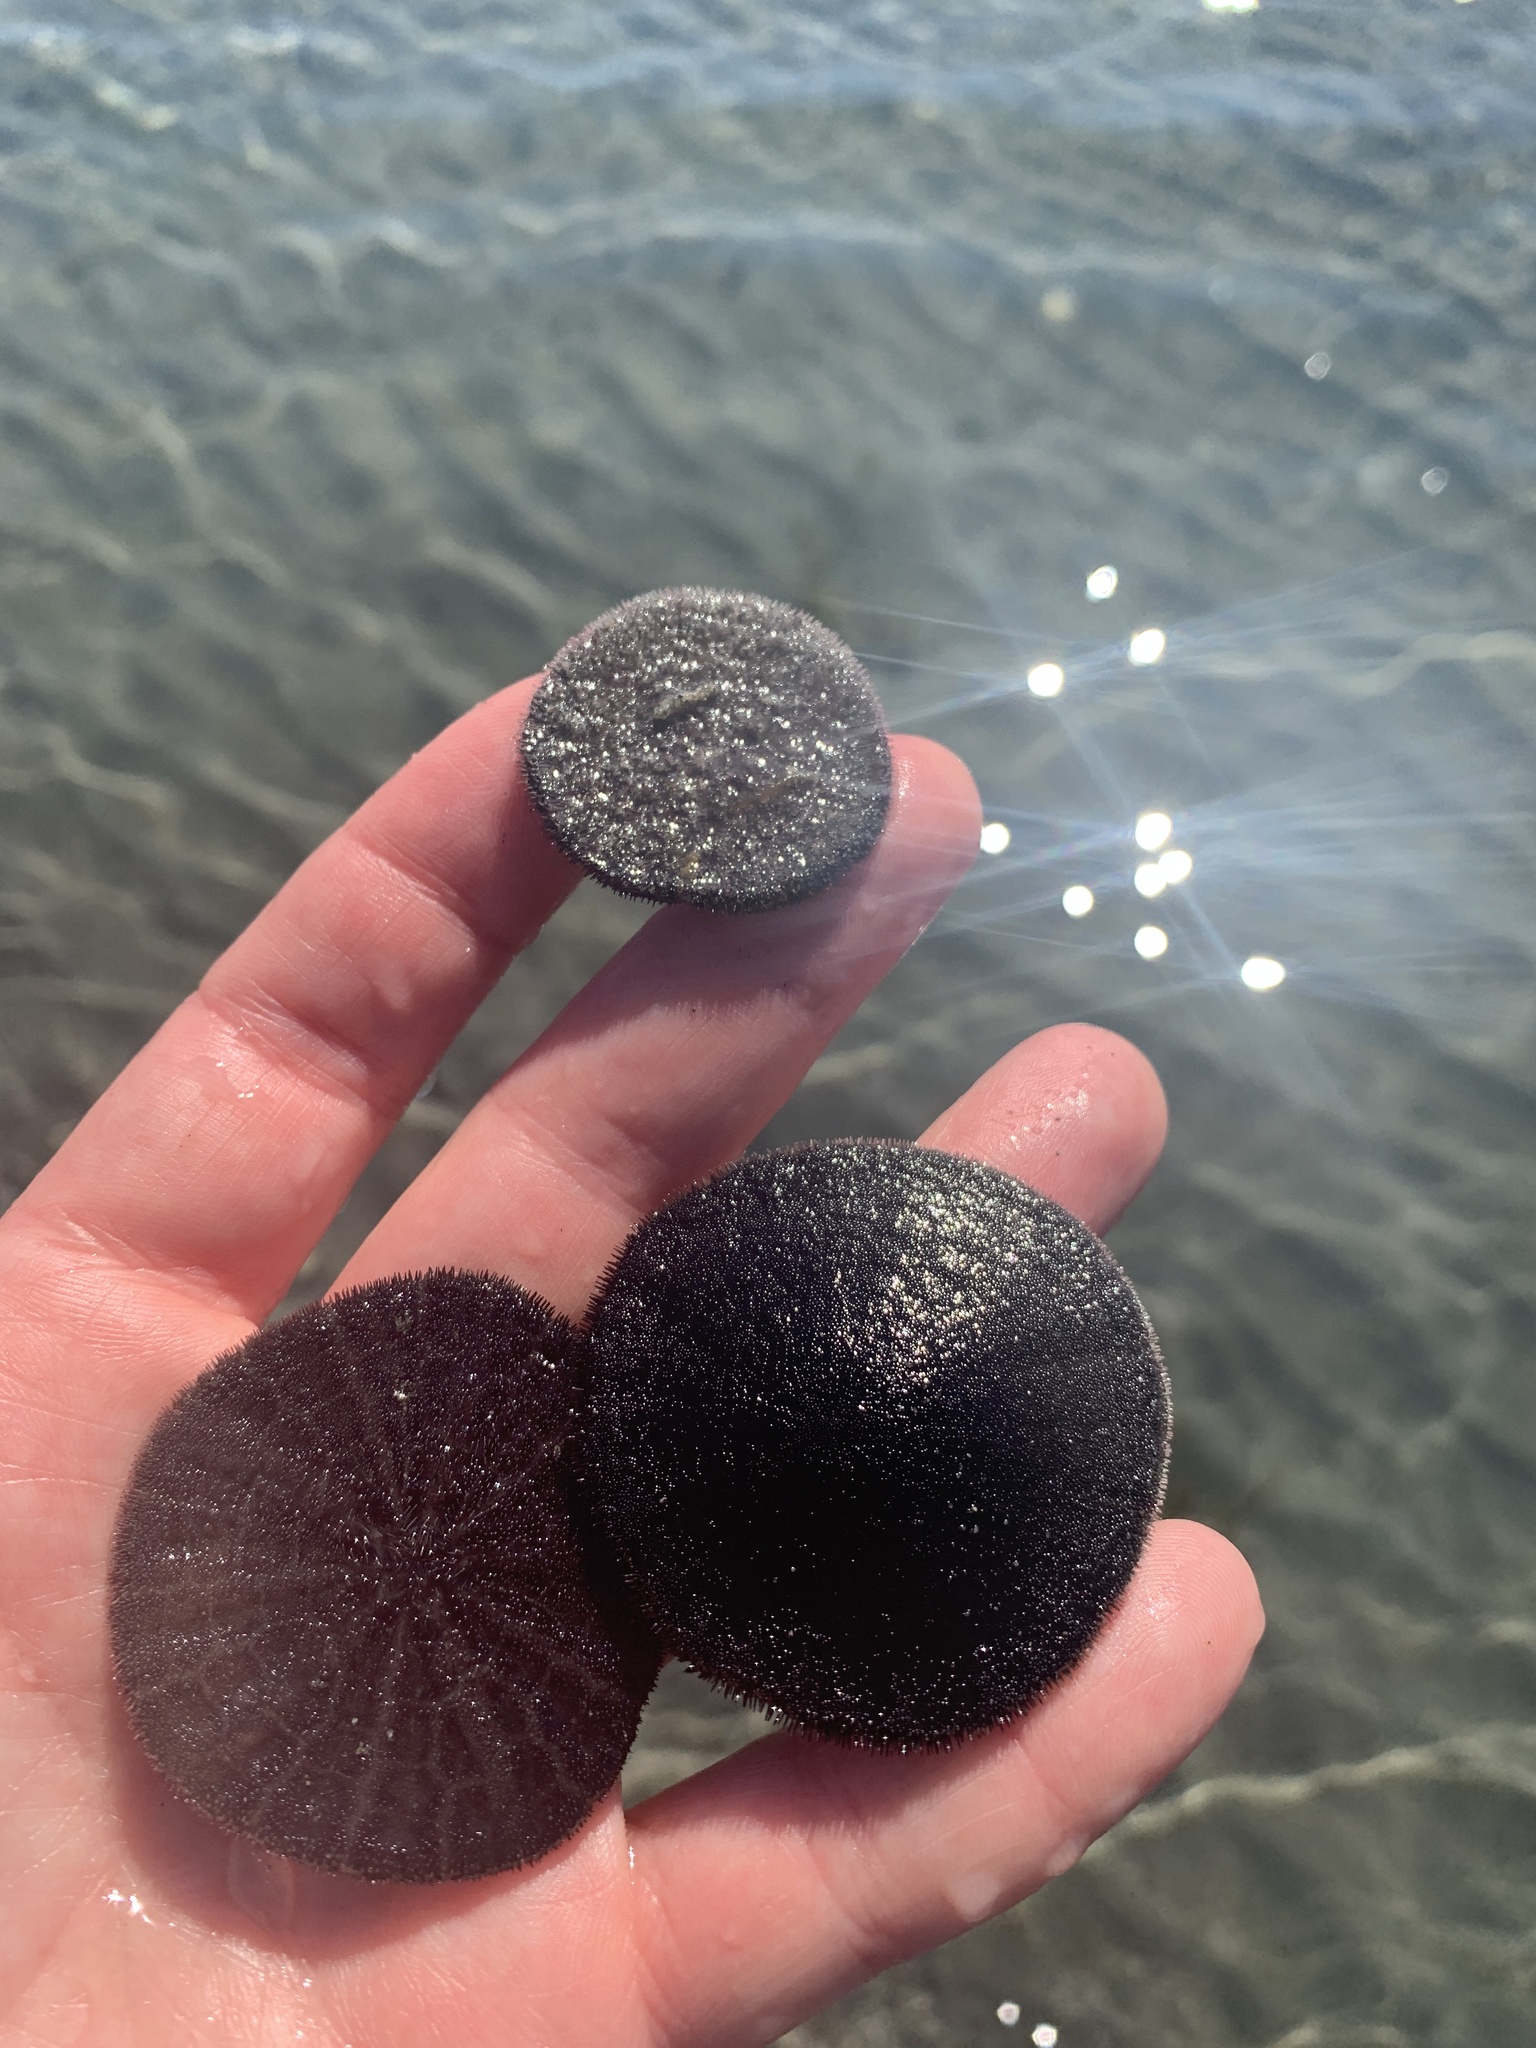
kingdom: Animalia
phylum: Echinodermata
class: Echinoidea
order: Echinolampadacea
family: Dendrasteridae
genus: Dendraster
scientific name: Dendraster excentricus
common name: Eccentric sand dollar sea urchin
